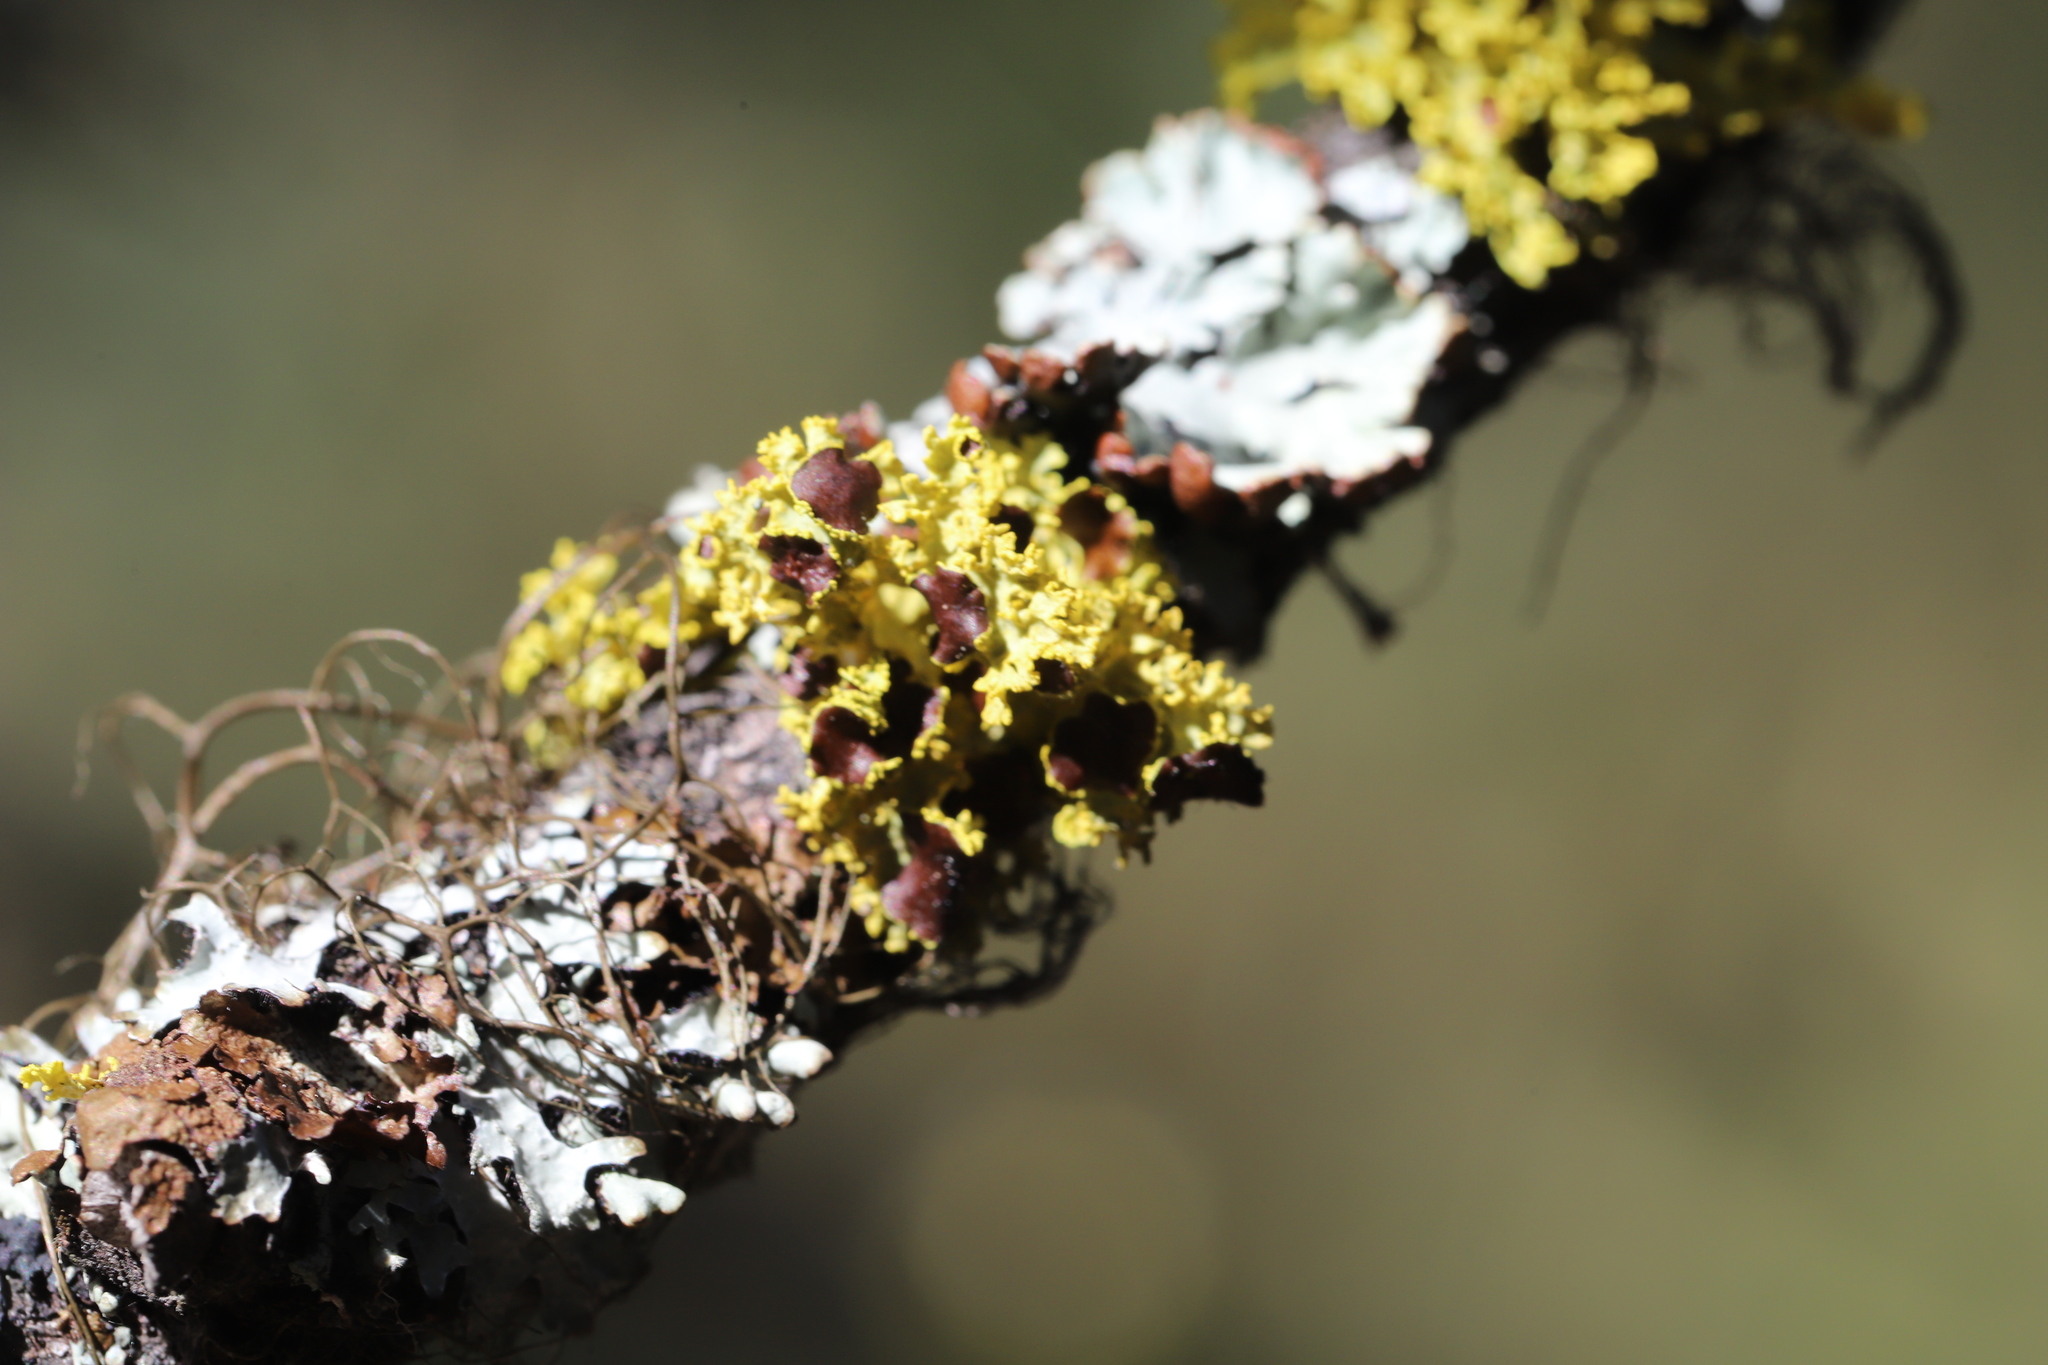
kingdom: Fungi
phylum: Ascomycota
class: Lecanoromycetes
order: Lecanorales
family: Parmeliaceae
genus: Vulpicida
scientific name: Vulpicida canadensis
